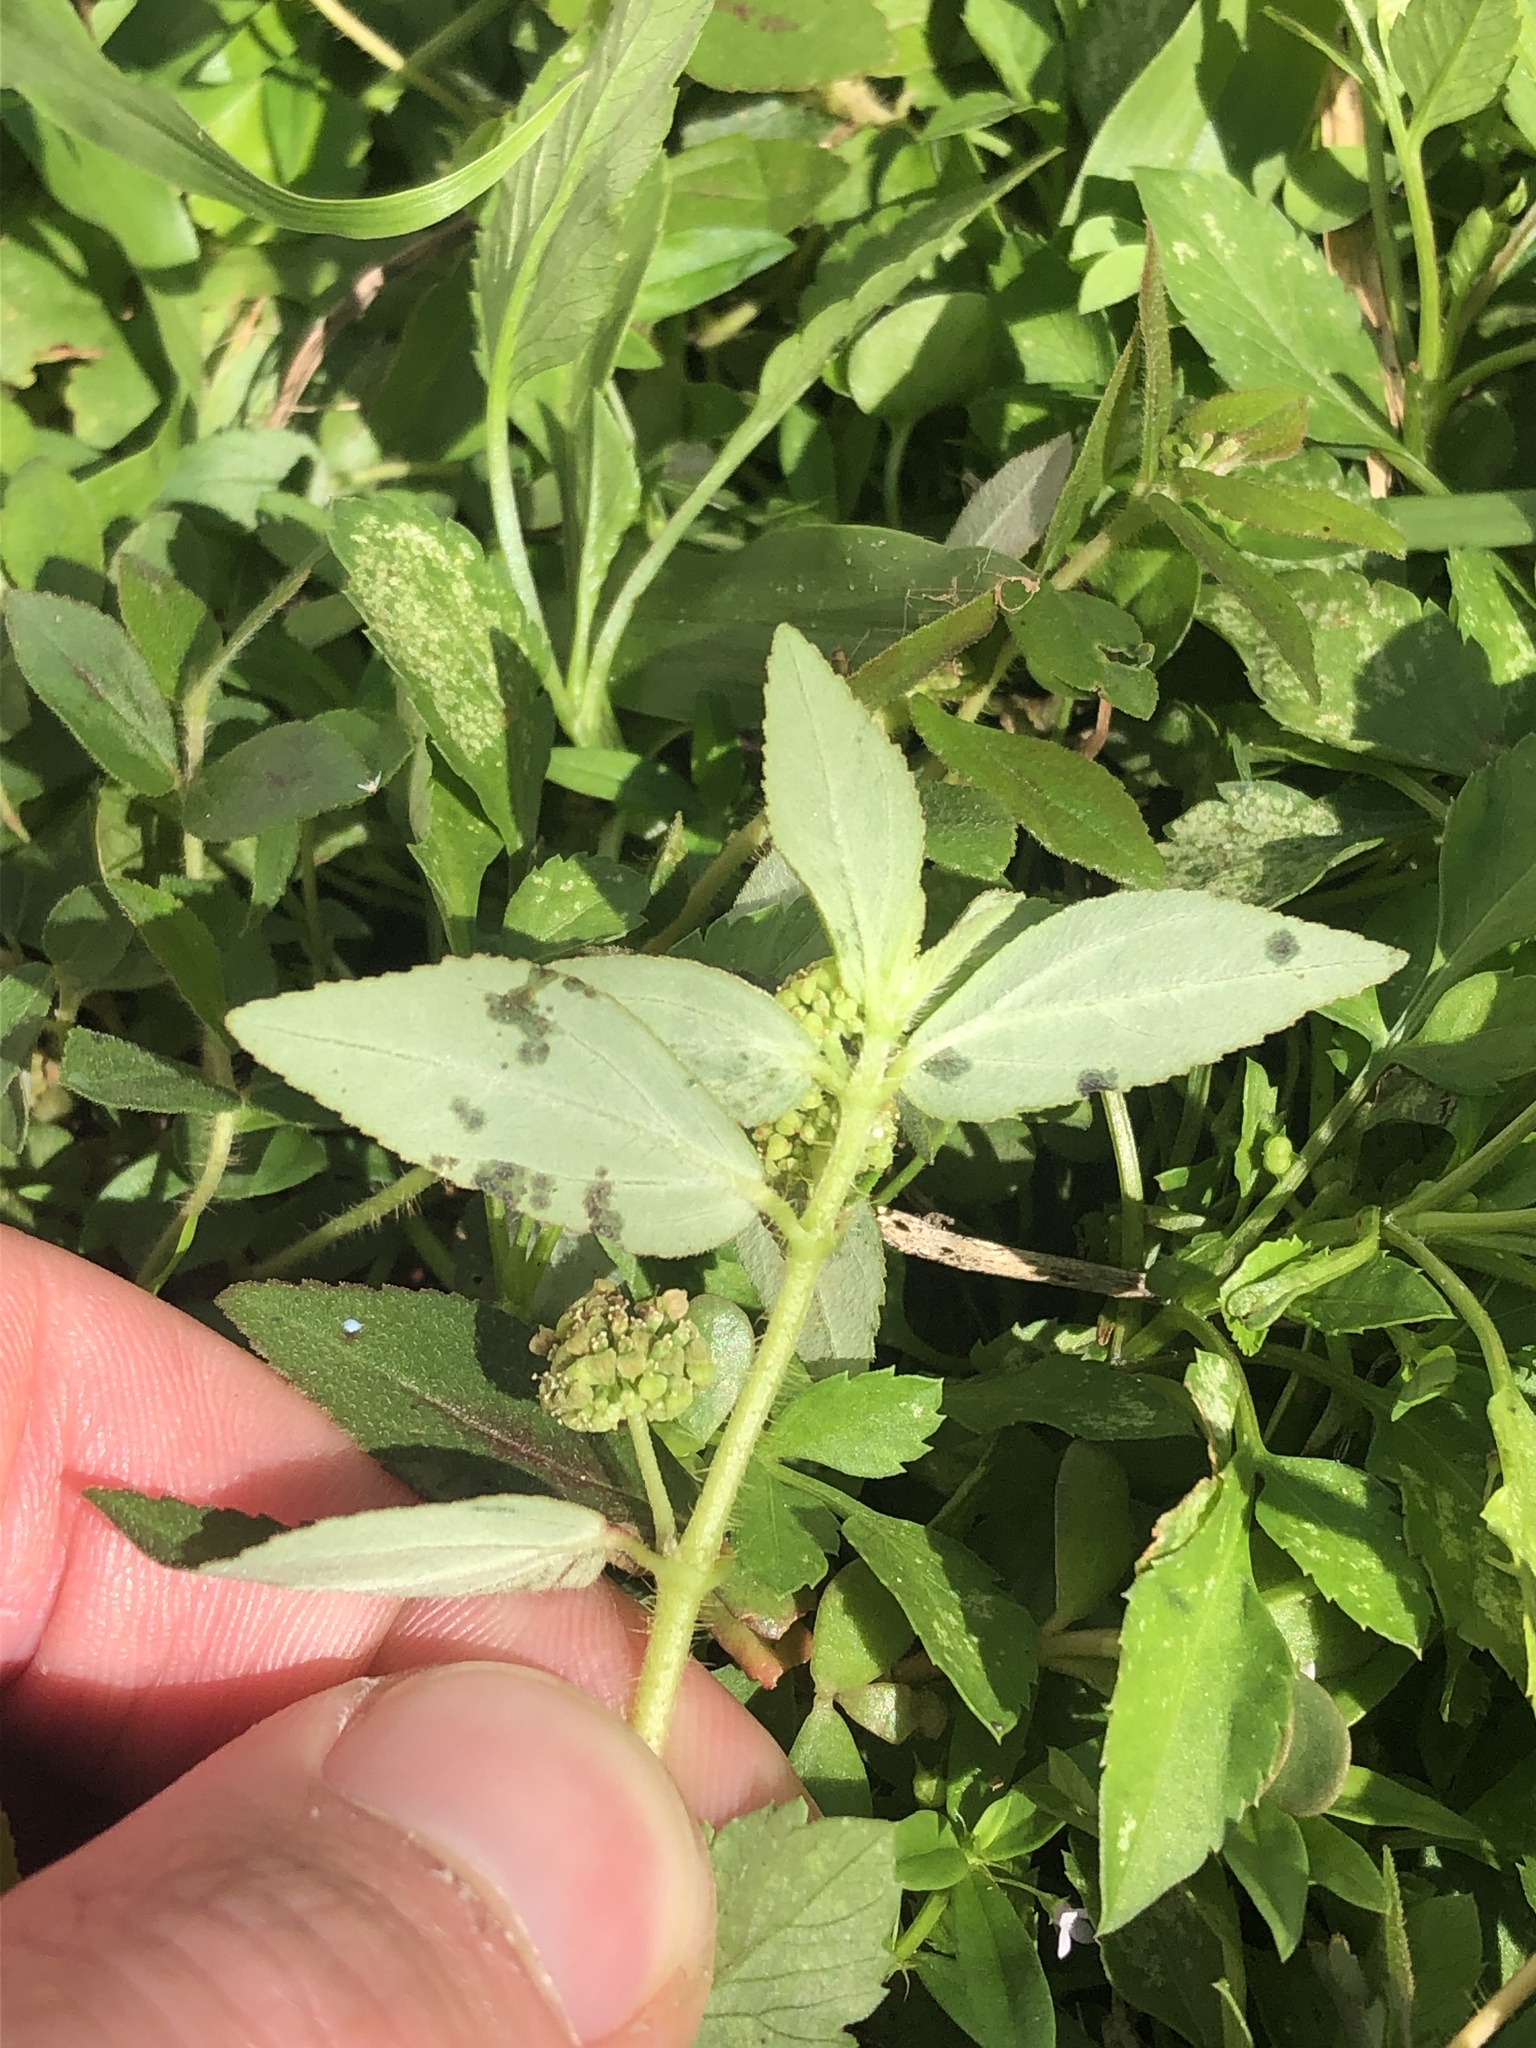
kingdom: Plantae
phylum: Tracheophyta
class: Magnoliopsida
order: Malpighiales
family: Euphorbiaceae
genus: Euphorbia
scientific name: Euphorbia hirta
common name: Pillpod sandmat
